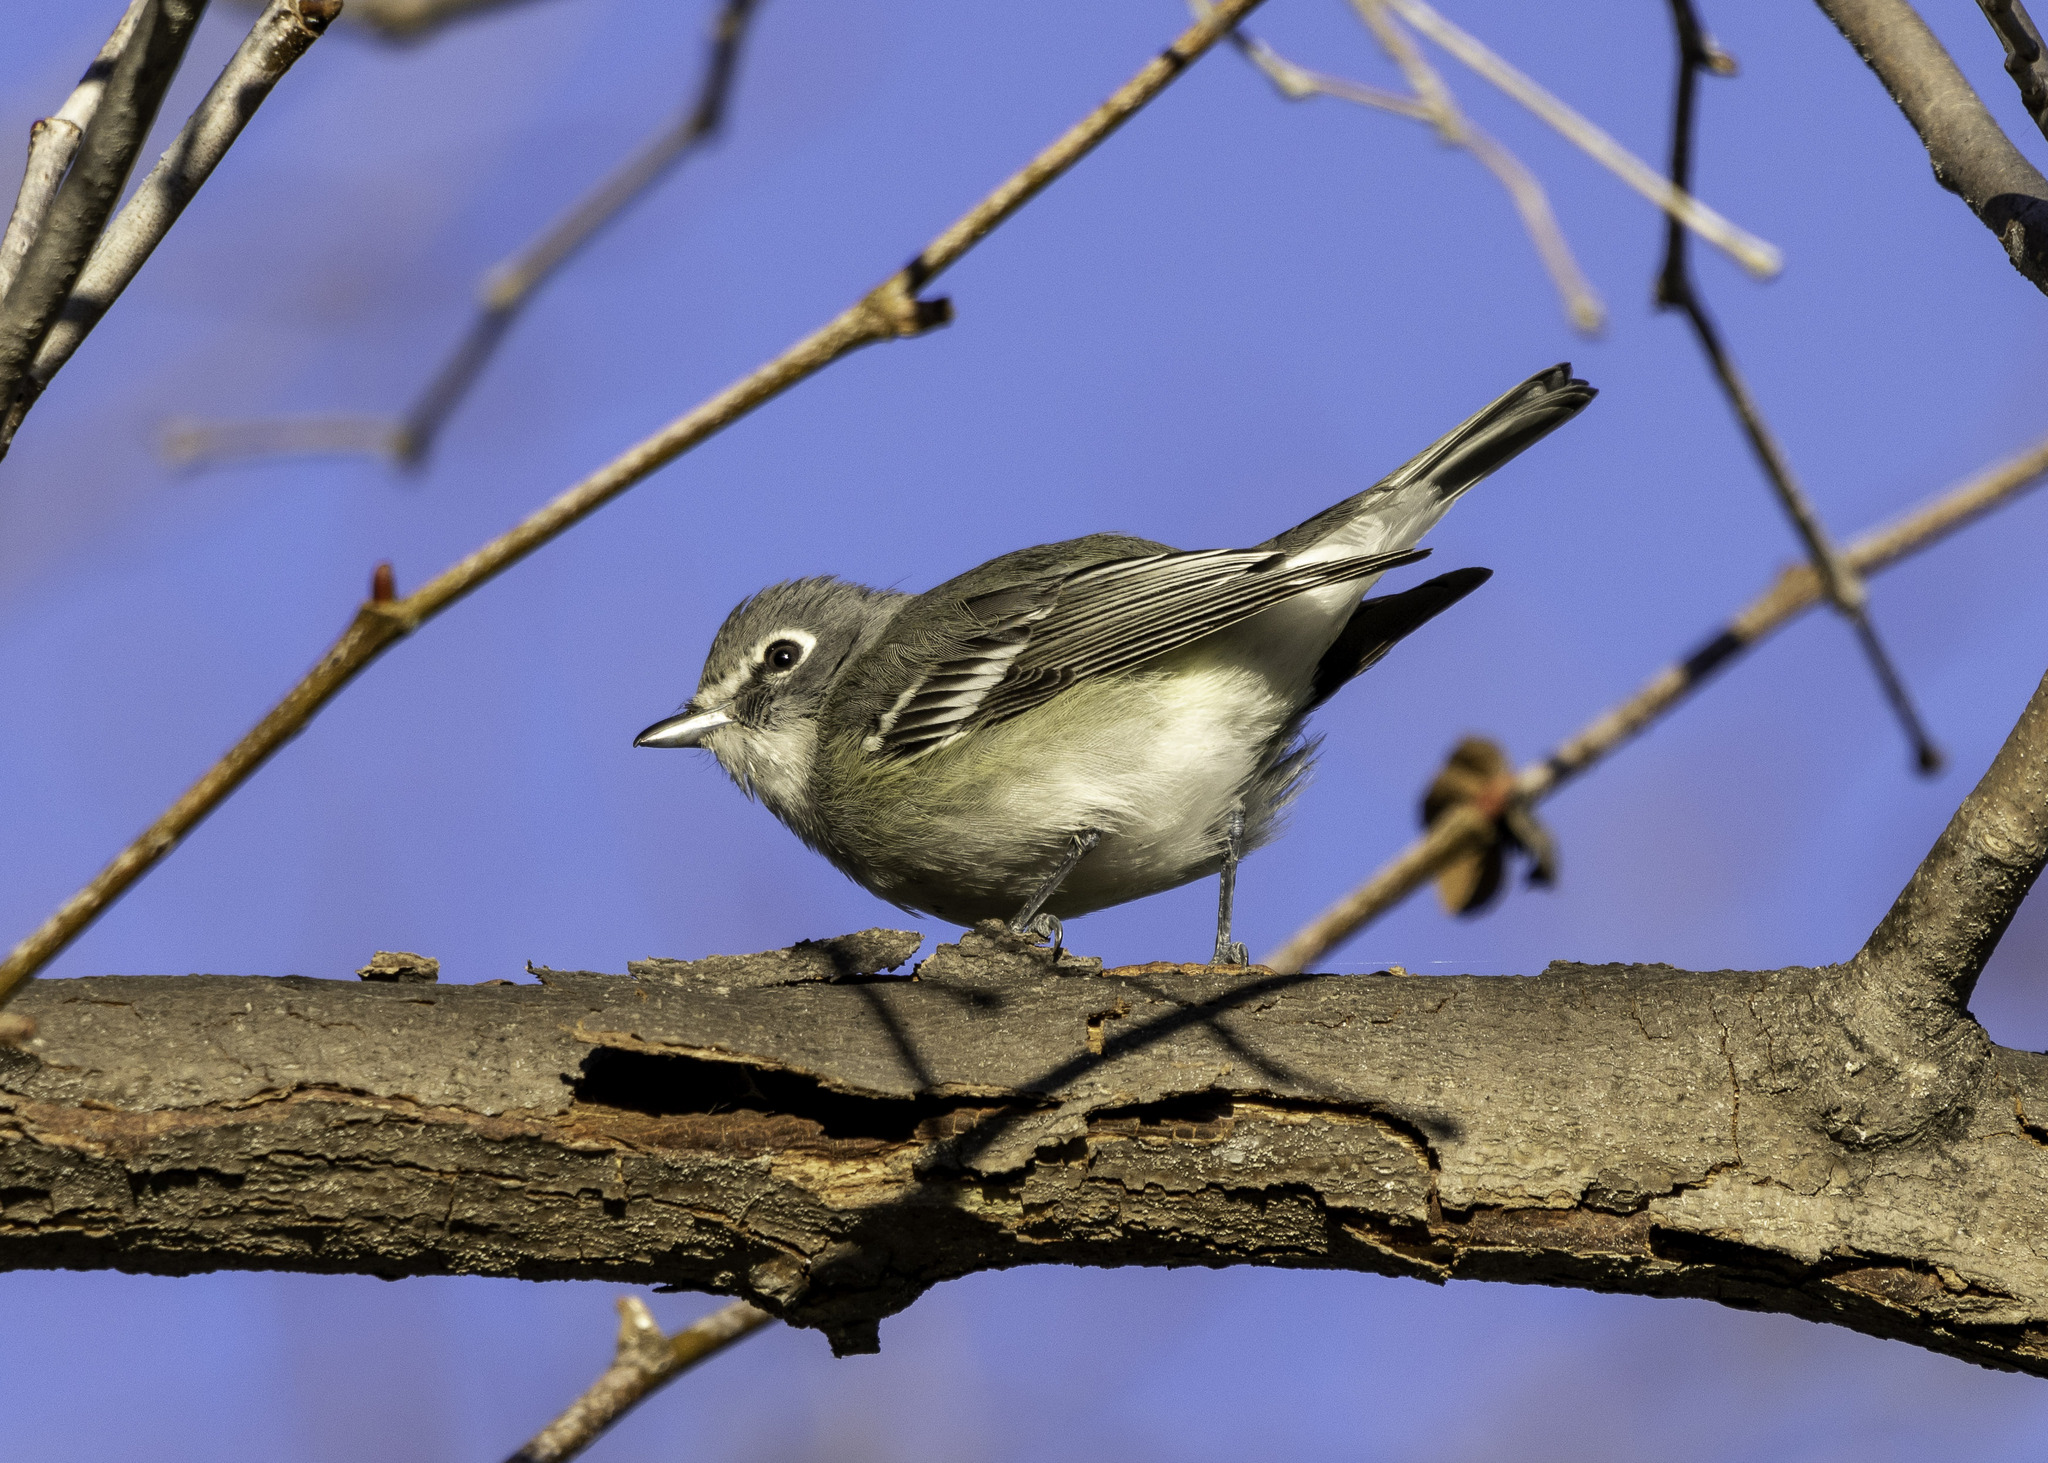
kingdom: Animalia
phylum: Chordata
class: Aves
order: Passeriformes
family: Vireonidae
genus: Vireo
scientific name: Vireo plumbeus
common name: Plumbeous vireo
